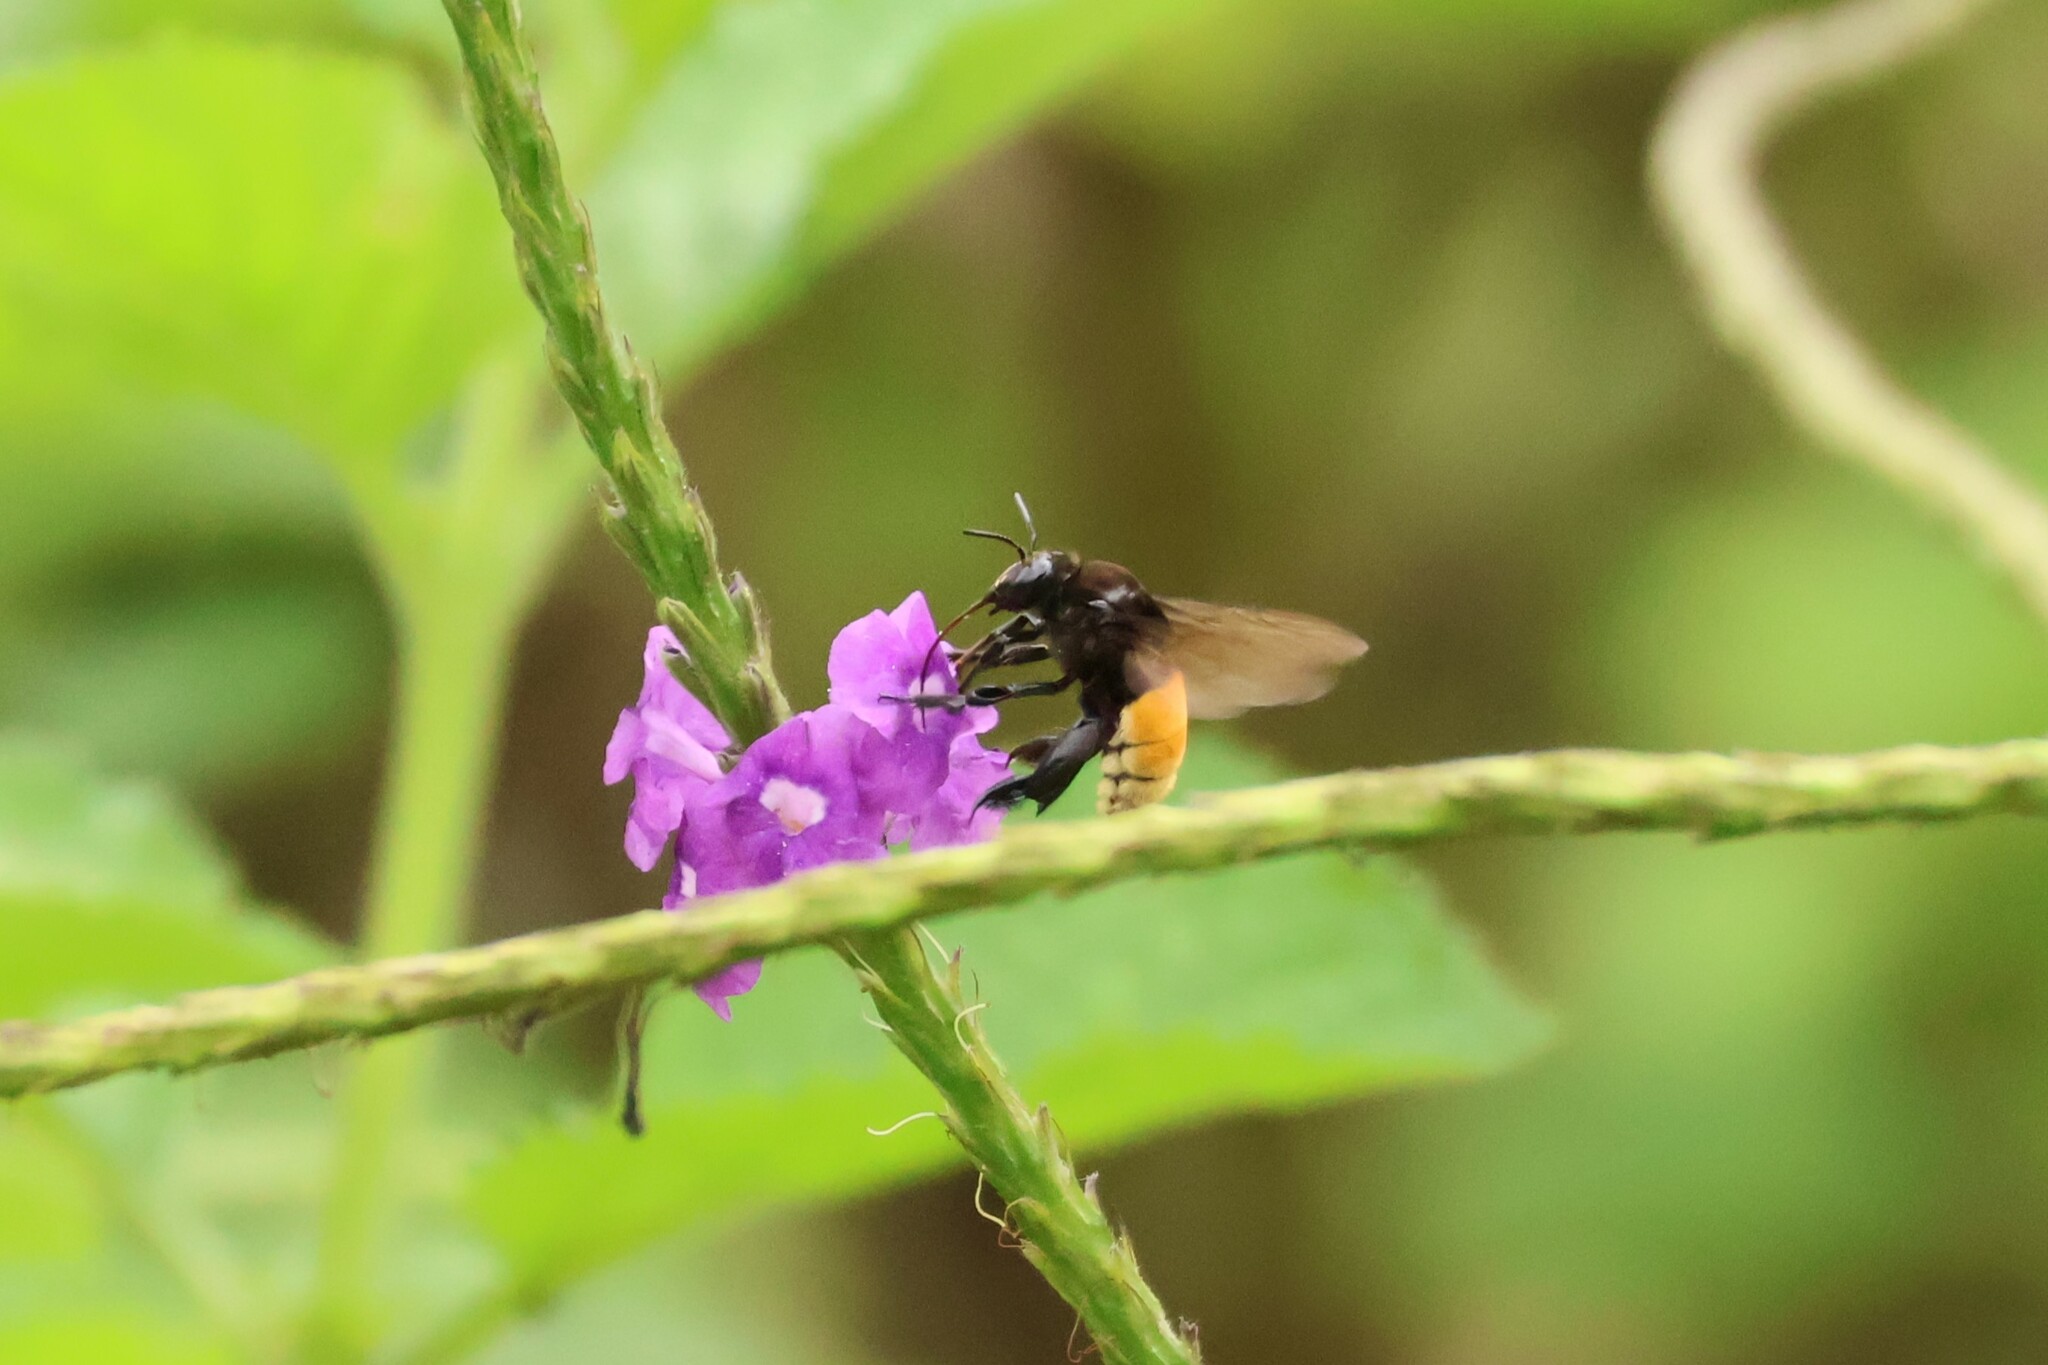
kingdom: Animalia
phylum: Arthropoda
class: Insecta
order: Hymenoptera
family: Apidae
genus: Eulaema
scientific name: Eulaema polychroma
